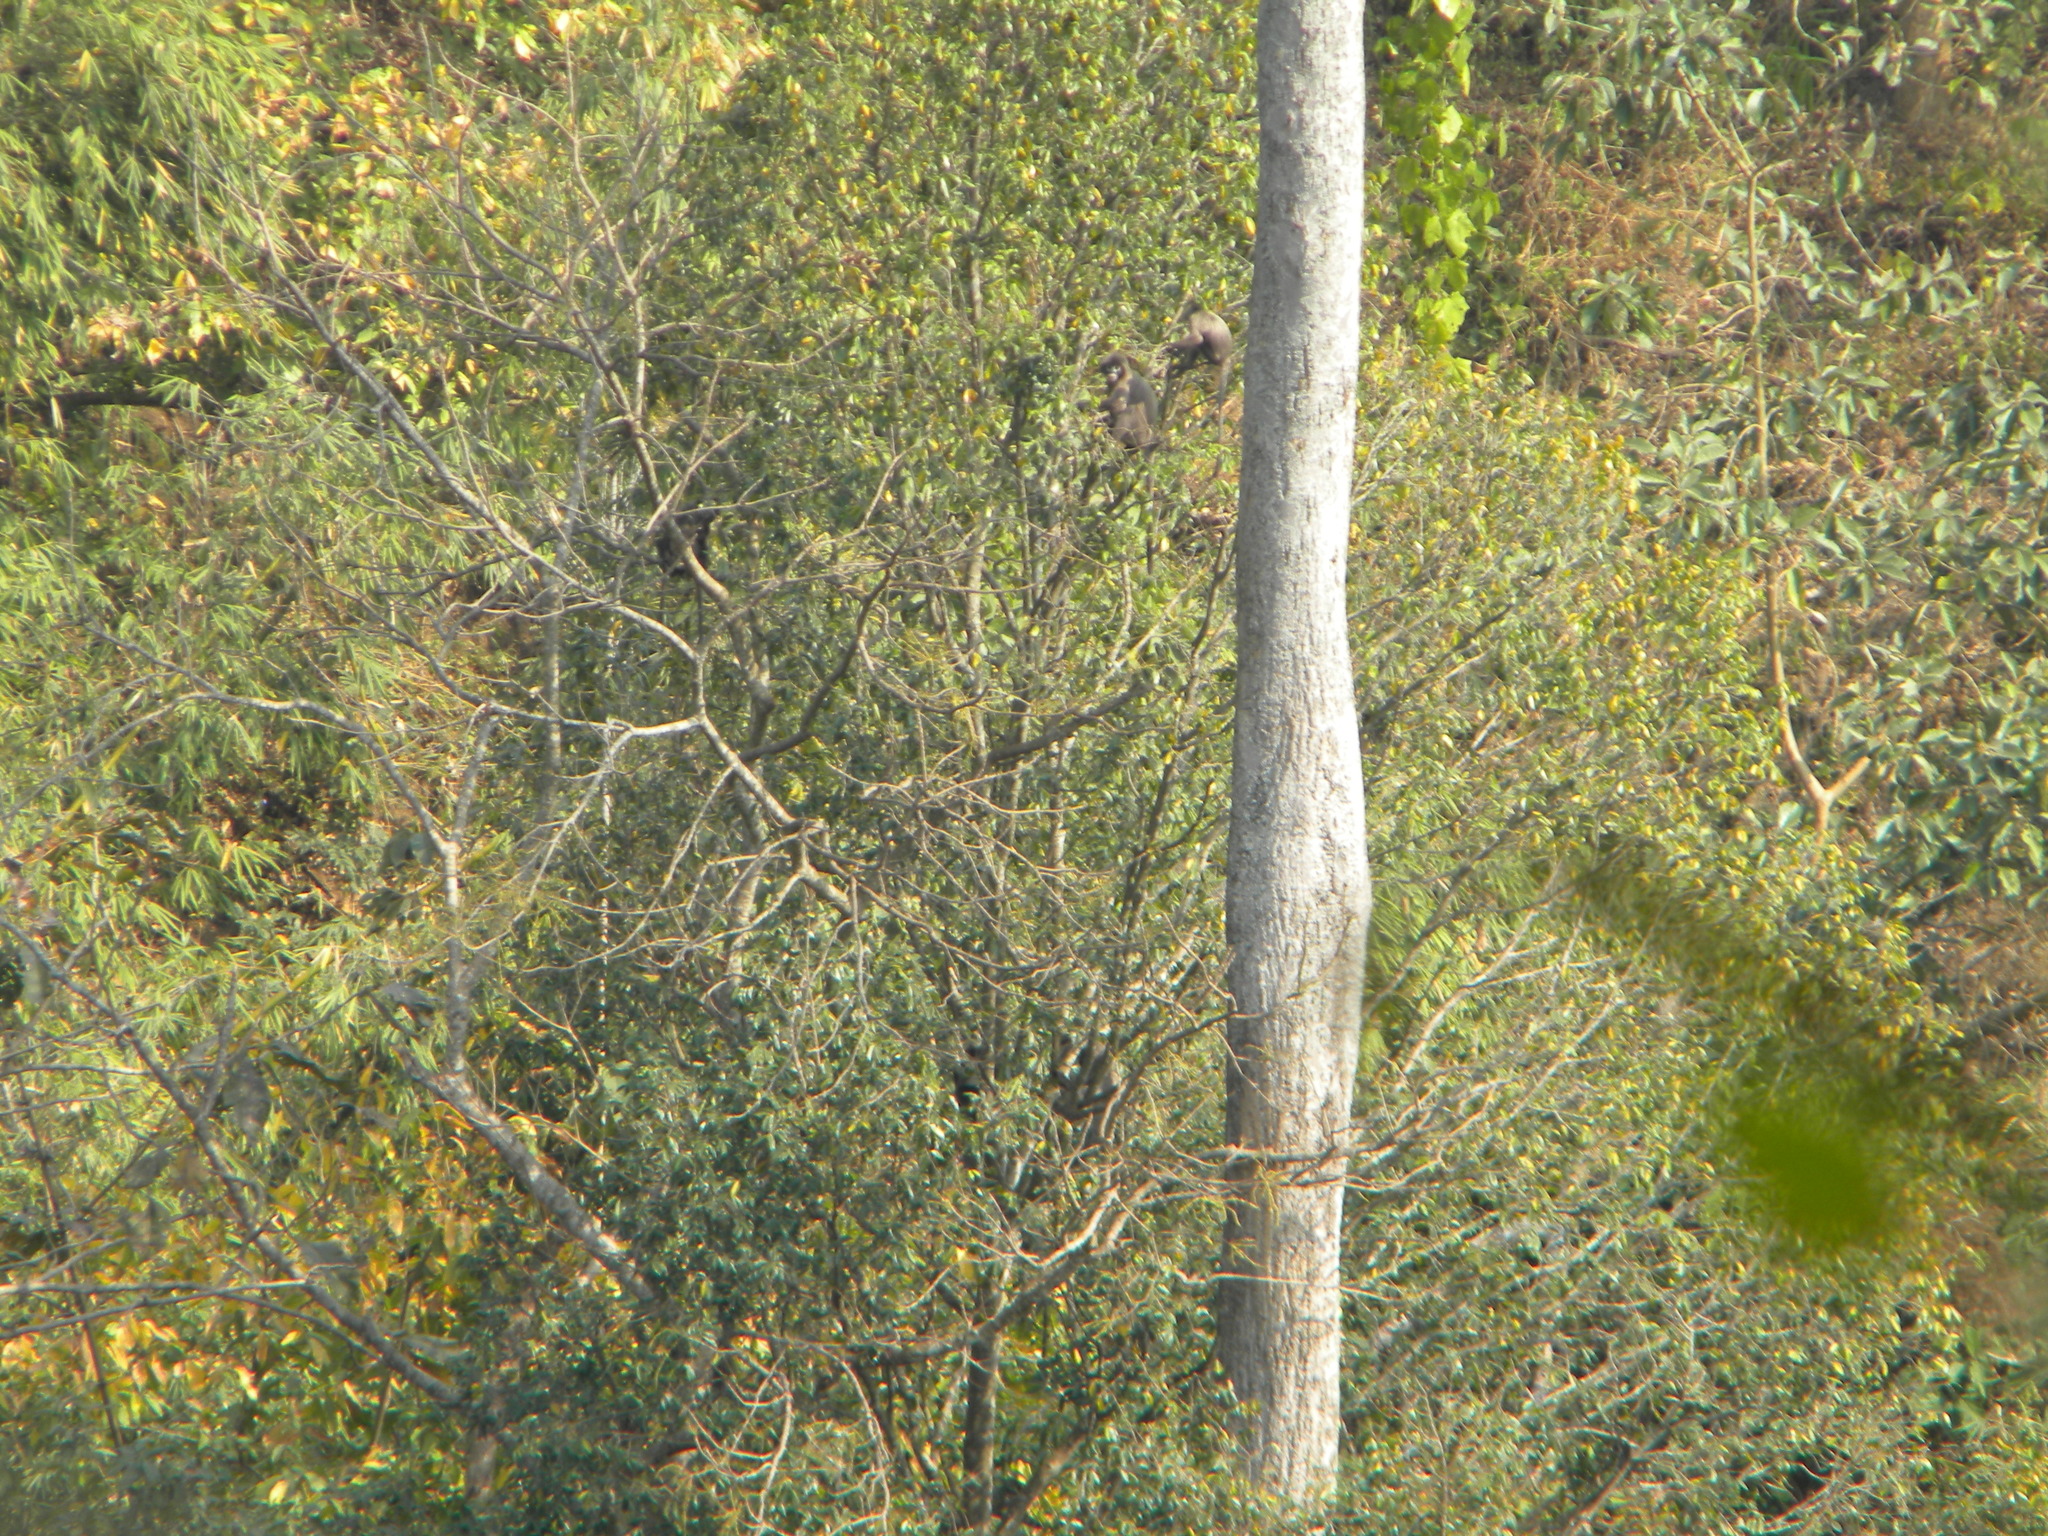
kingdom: Animalia
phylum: Chordata
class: Mammalia
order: Primates
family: Cercopithecidae
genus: Trachypithecus
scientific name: Trachypithecus phayrei
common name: Phayre's leaf monkey
